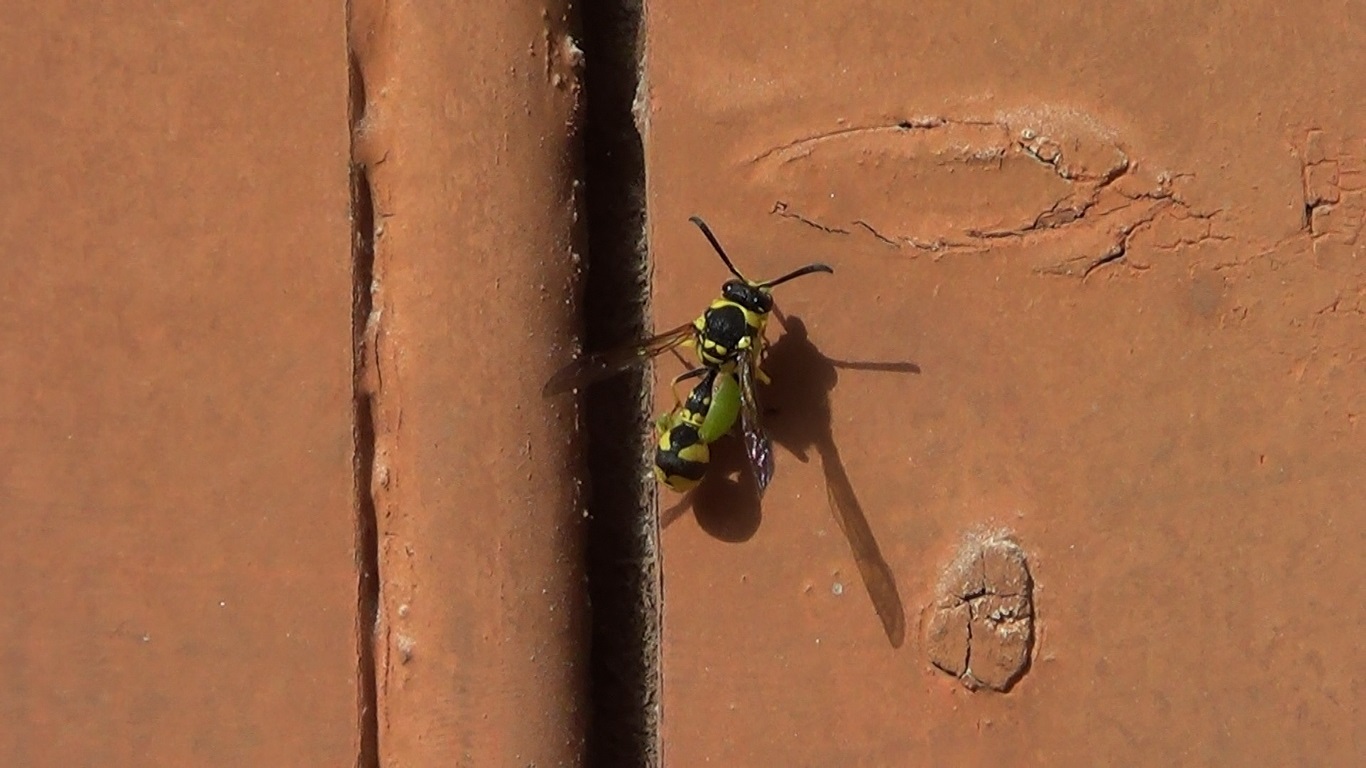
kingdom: Animalia
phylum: Arthropoda
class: Insecta
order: Hymenoptera
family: Vespidae
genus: Eumenes
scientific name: Eumenes mediterraneus
